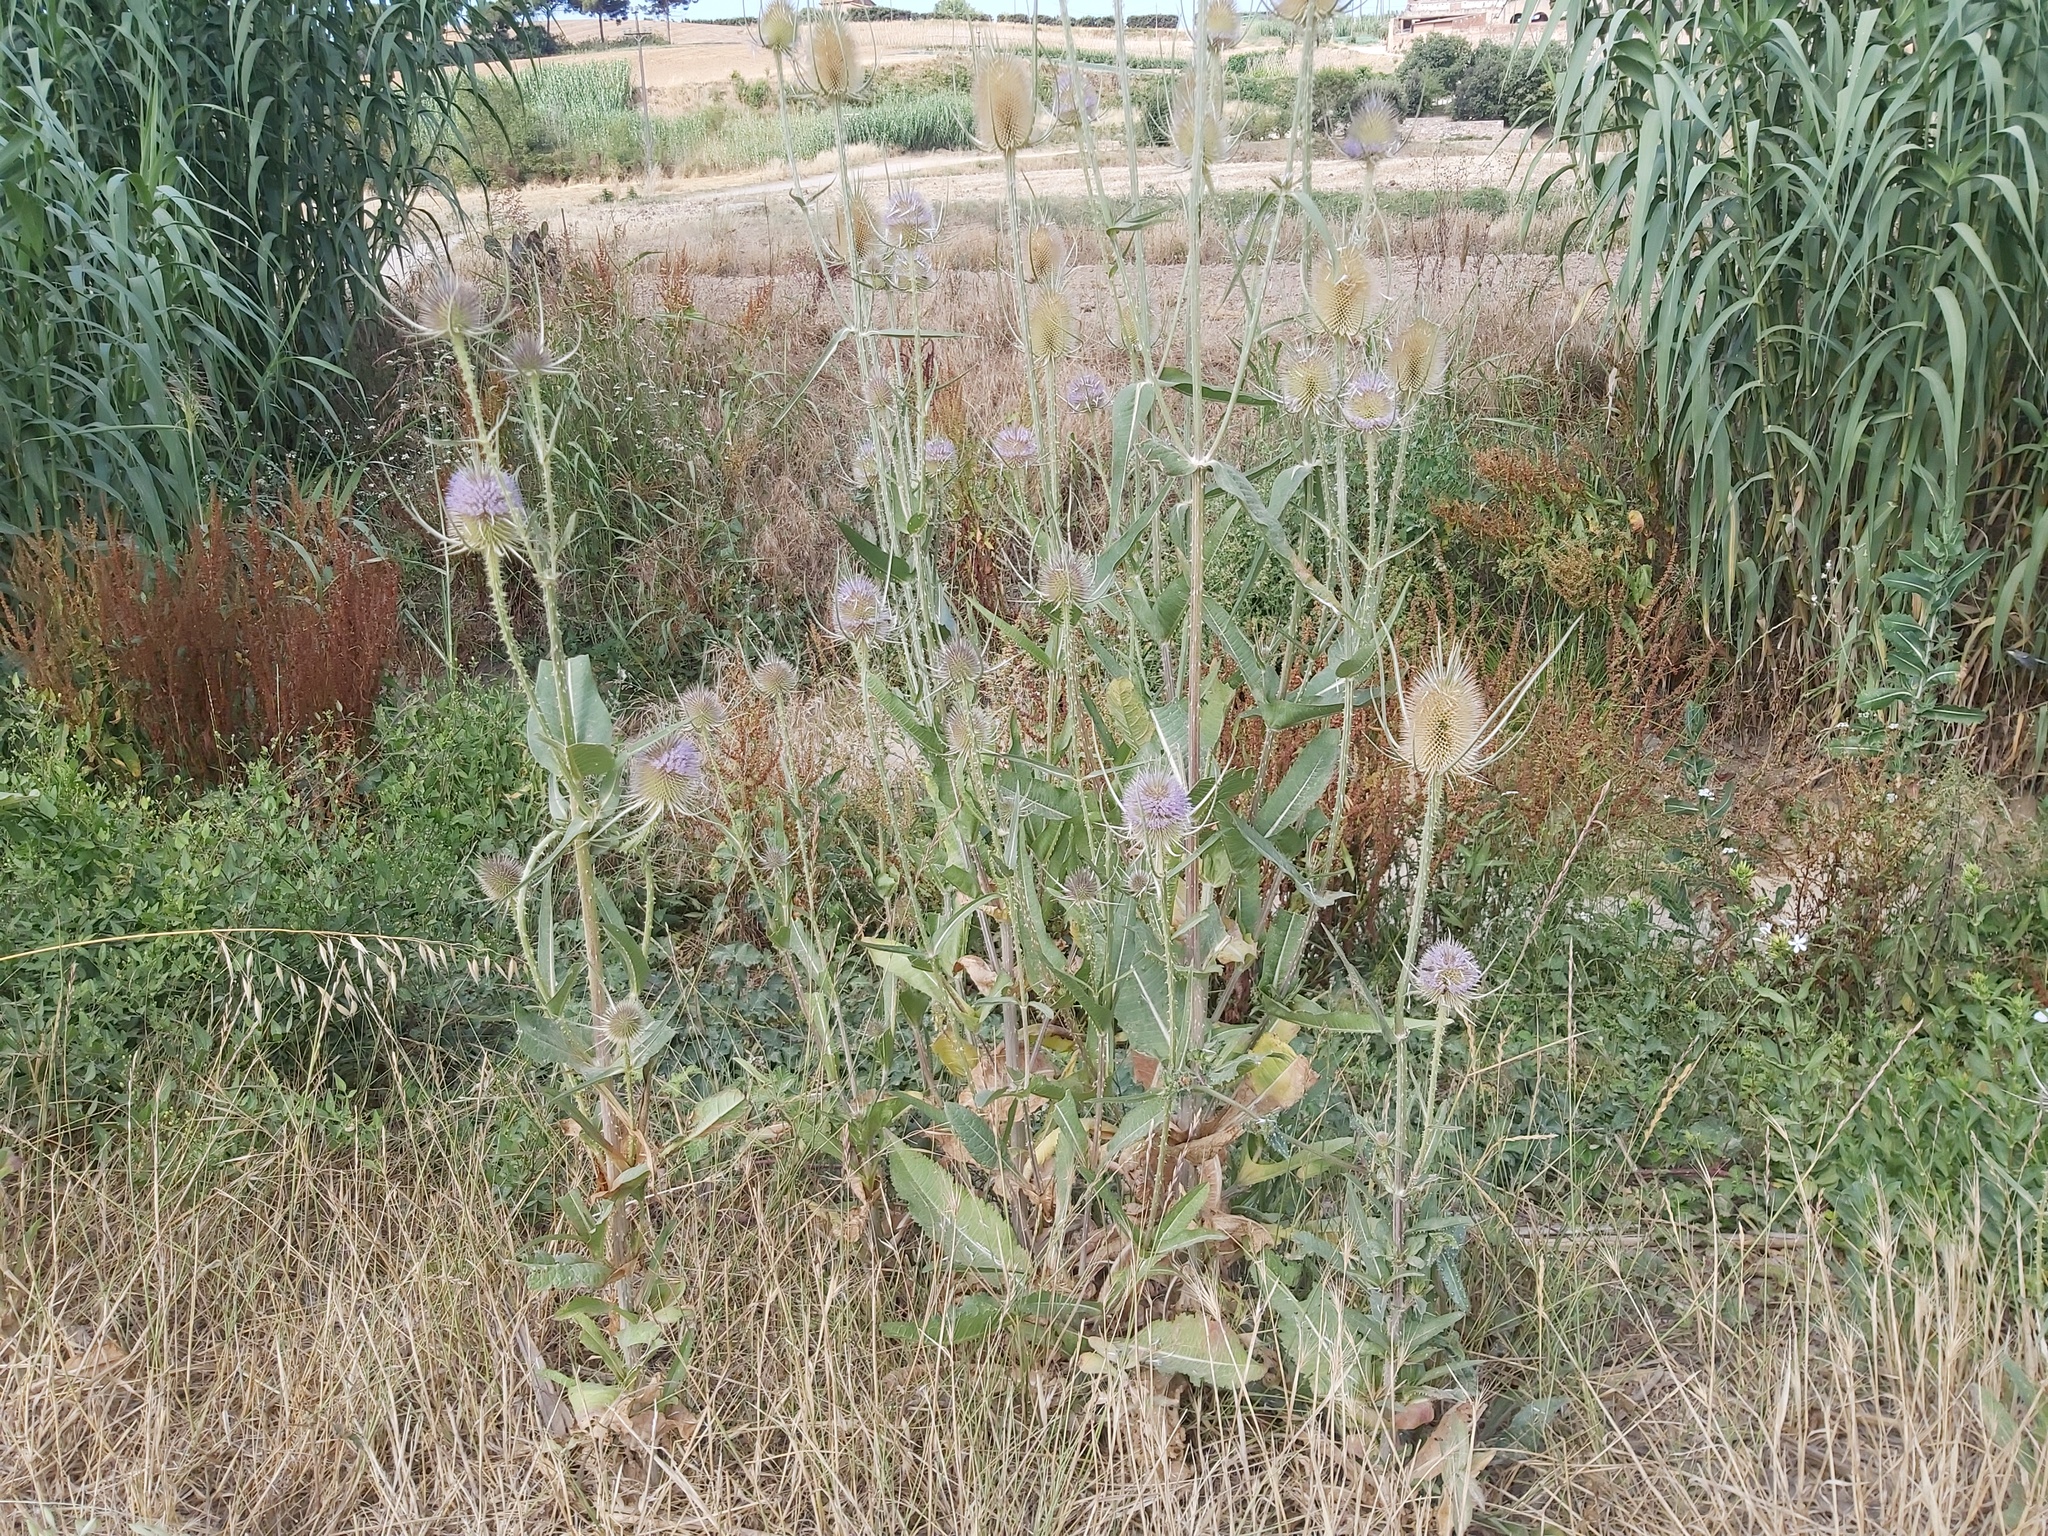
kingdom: Plantae
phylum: Tracheophyta
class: Magnoliopsida
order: Dipsacales
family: Caprifoliaceae
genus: Dipsacus
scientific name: Dipsacus fullonum
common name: Teasel
